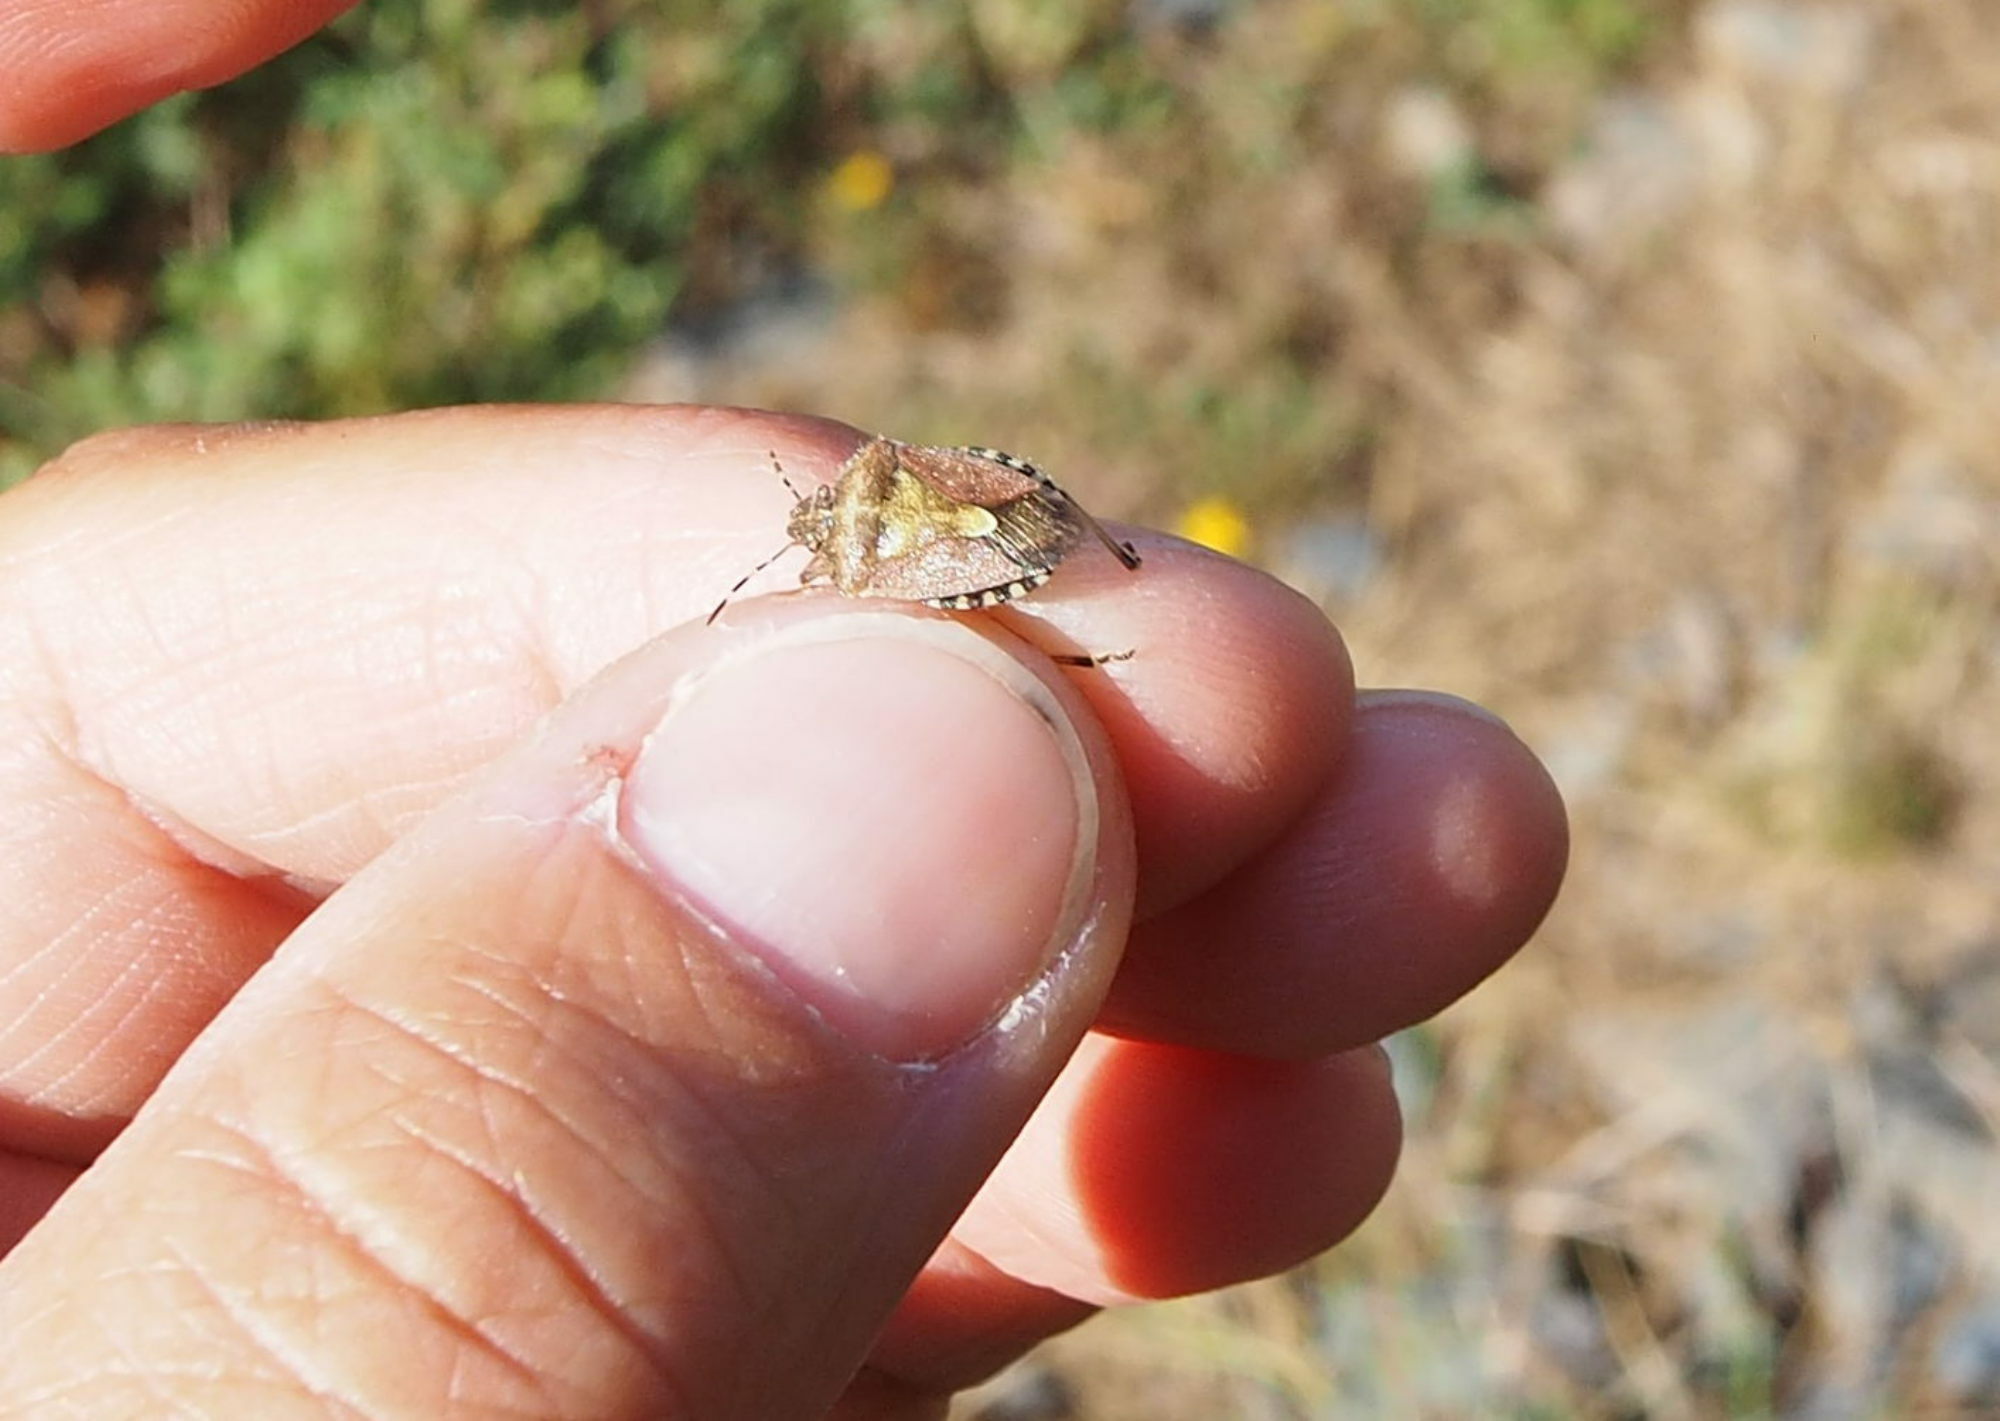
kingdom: Animalia
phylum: Arthropoda
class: Insecta
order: Hemiptera
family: Pentatomidae
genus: Dolycoris
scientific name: Dolycoris baccarum
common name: Sloe bug
